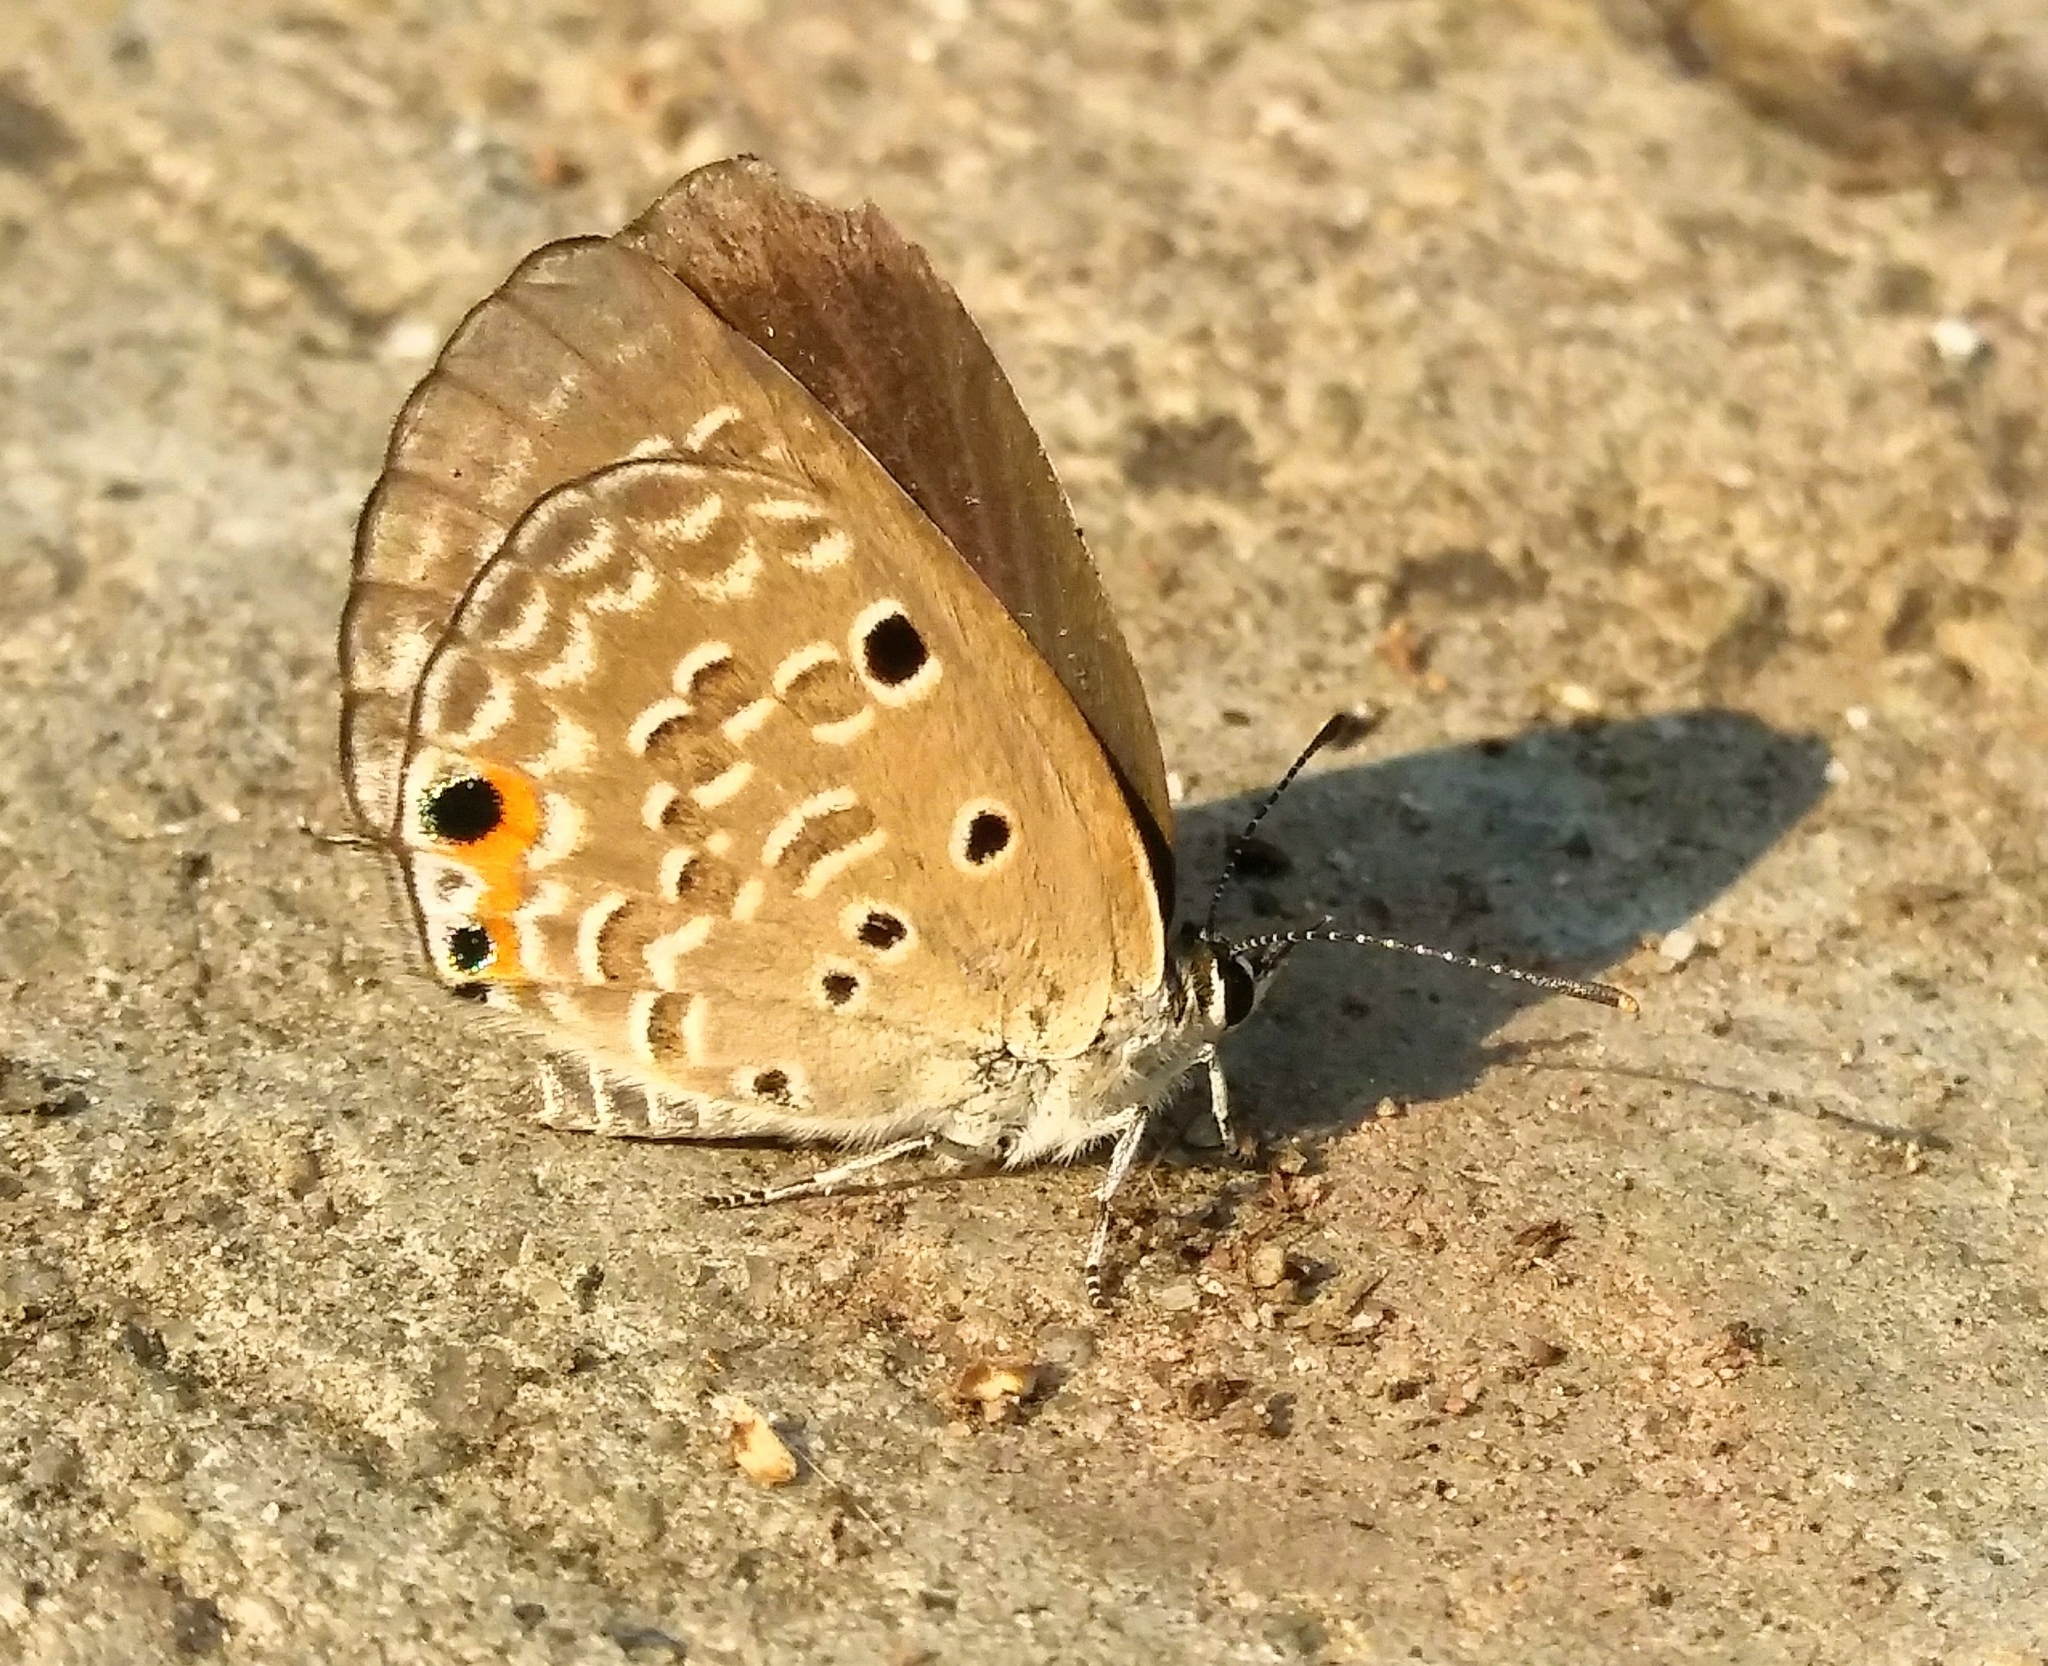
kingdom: Animalia
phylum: Arthropoda
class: Insecta
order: Lepidoptera
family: Lycaenidae
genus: Luthrodes
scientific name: Luthrodes pandava
